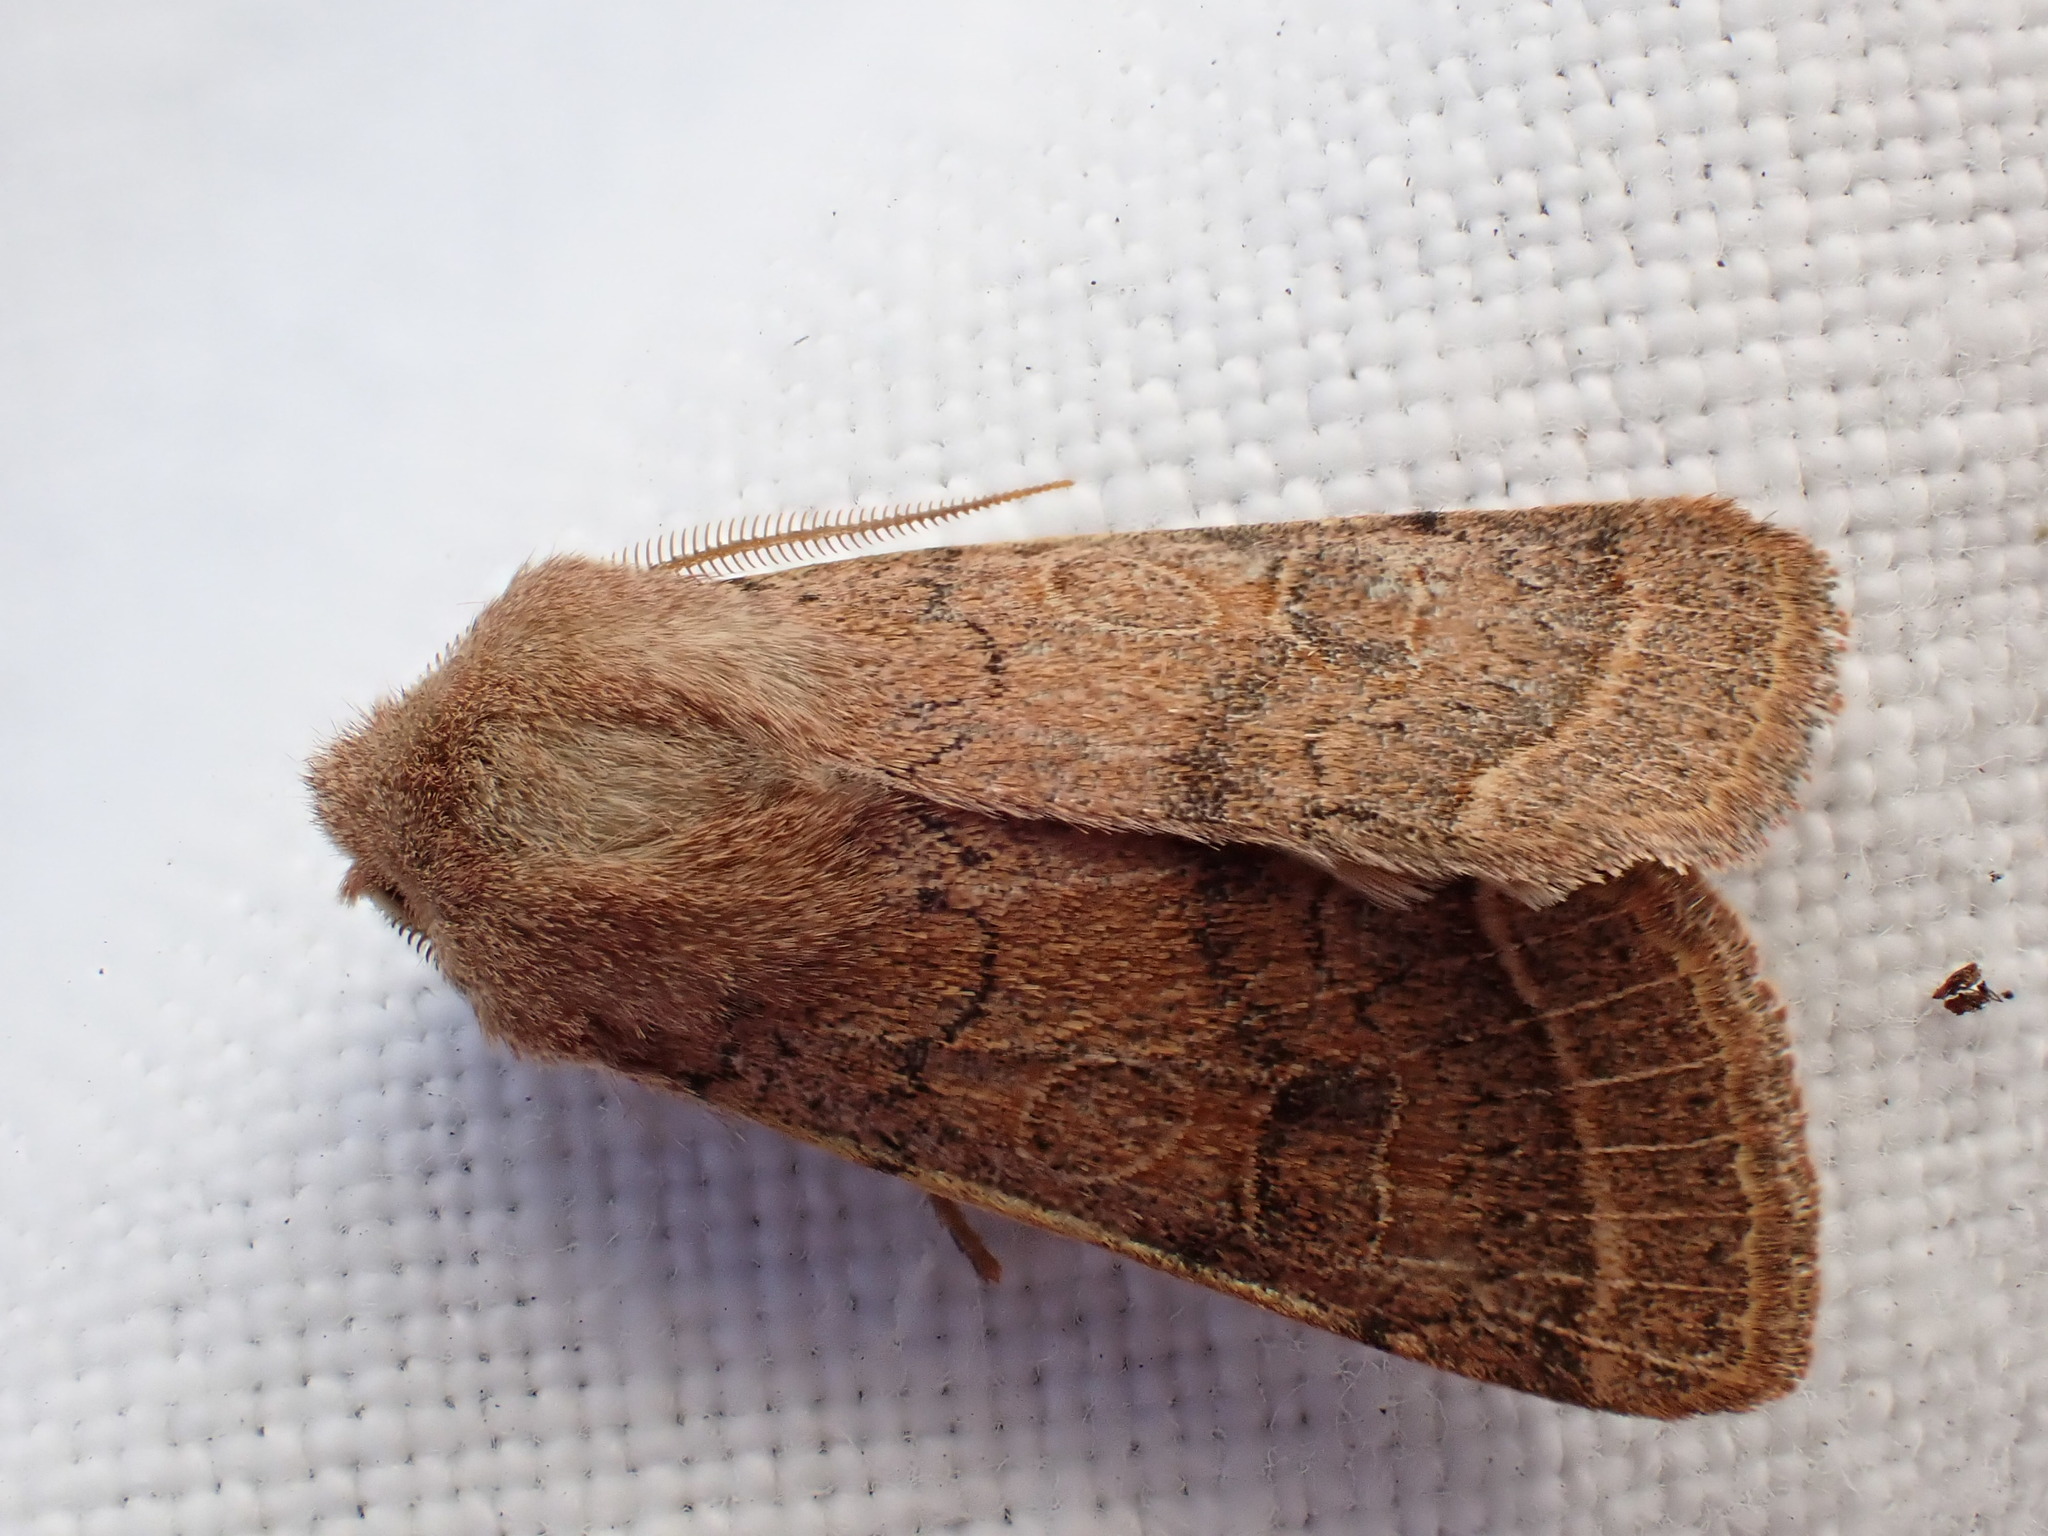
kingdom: Animalia
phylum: Arthropoda
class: Insecta
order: Lepidoptera
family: Noctuidae
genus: Orthosia
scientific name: Orthosia cerasi
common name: Common quaker
